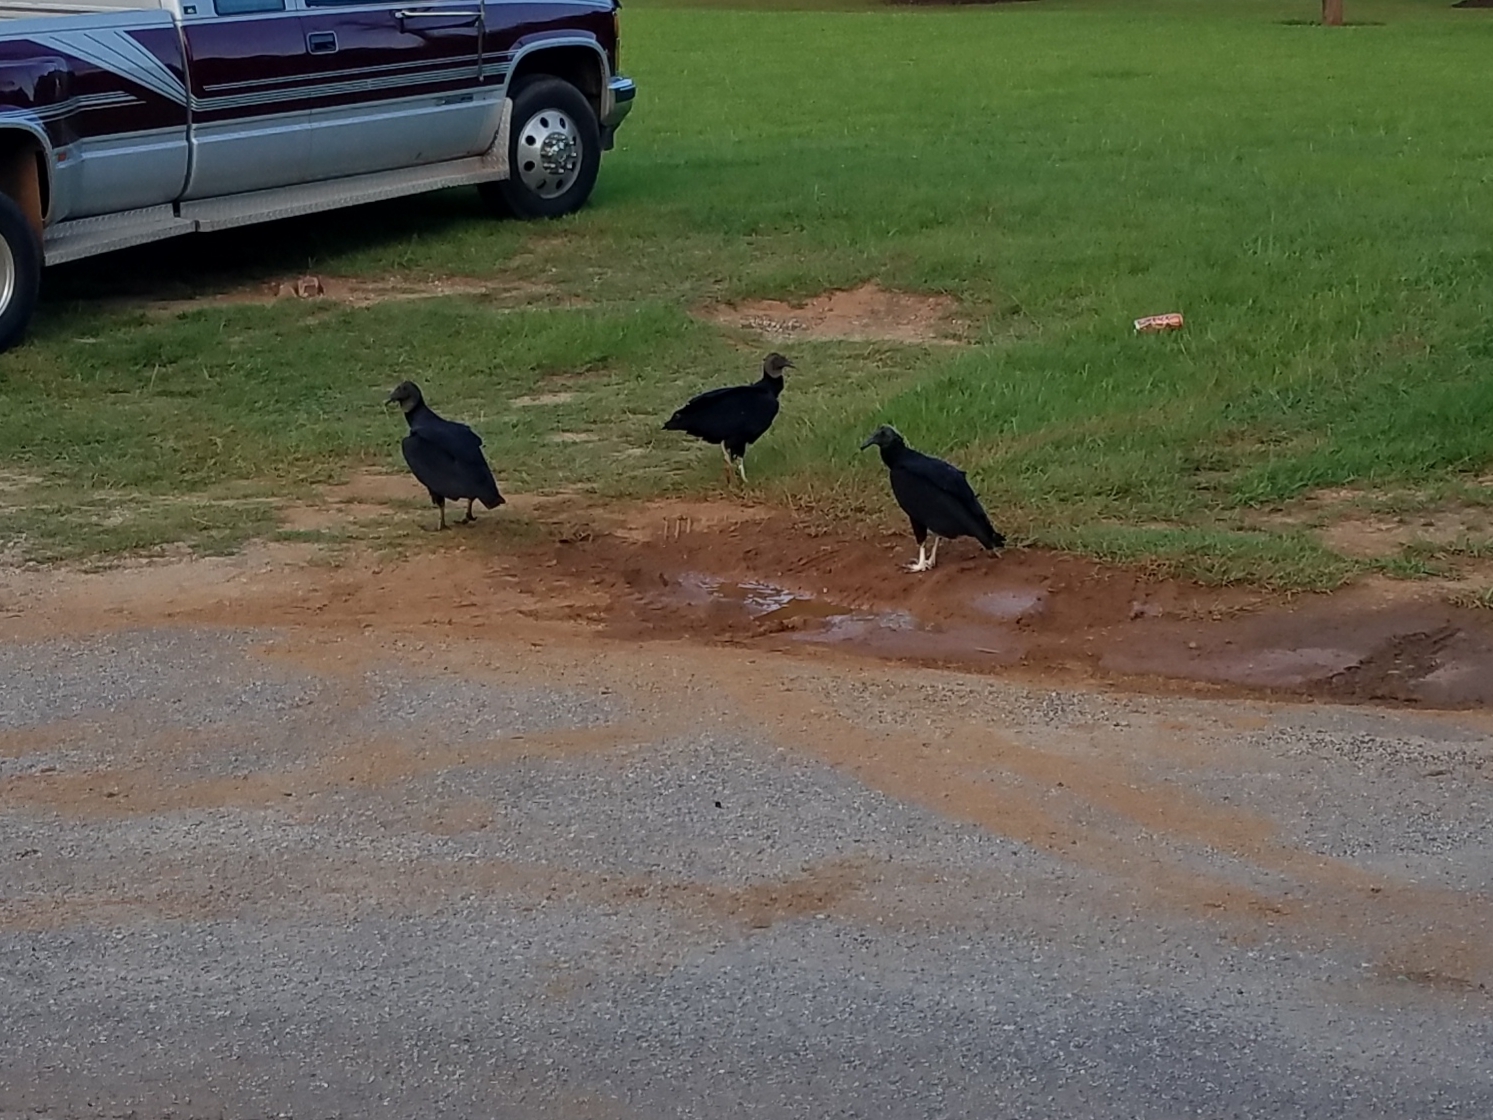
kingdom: Animalia
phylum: Chordata
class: Aves
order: Accipitriformes
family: Cathartidae
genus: Coragyps
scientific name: Coragyps atratus
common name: Black vulture
